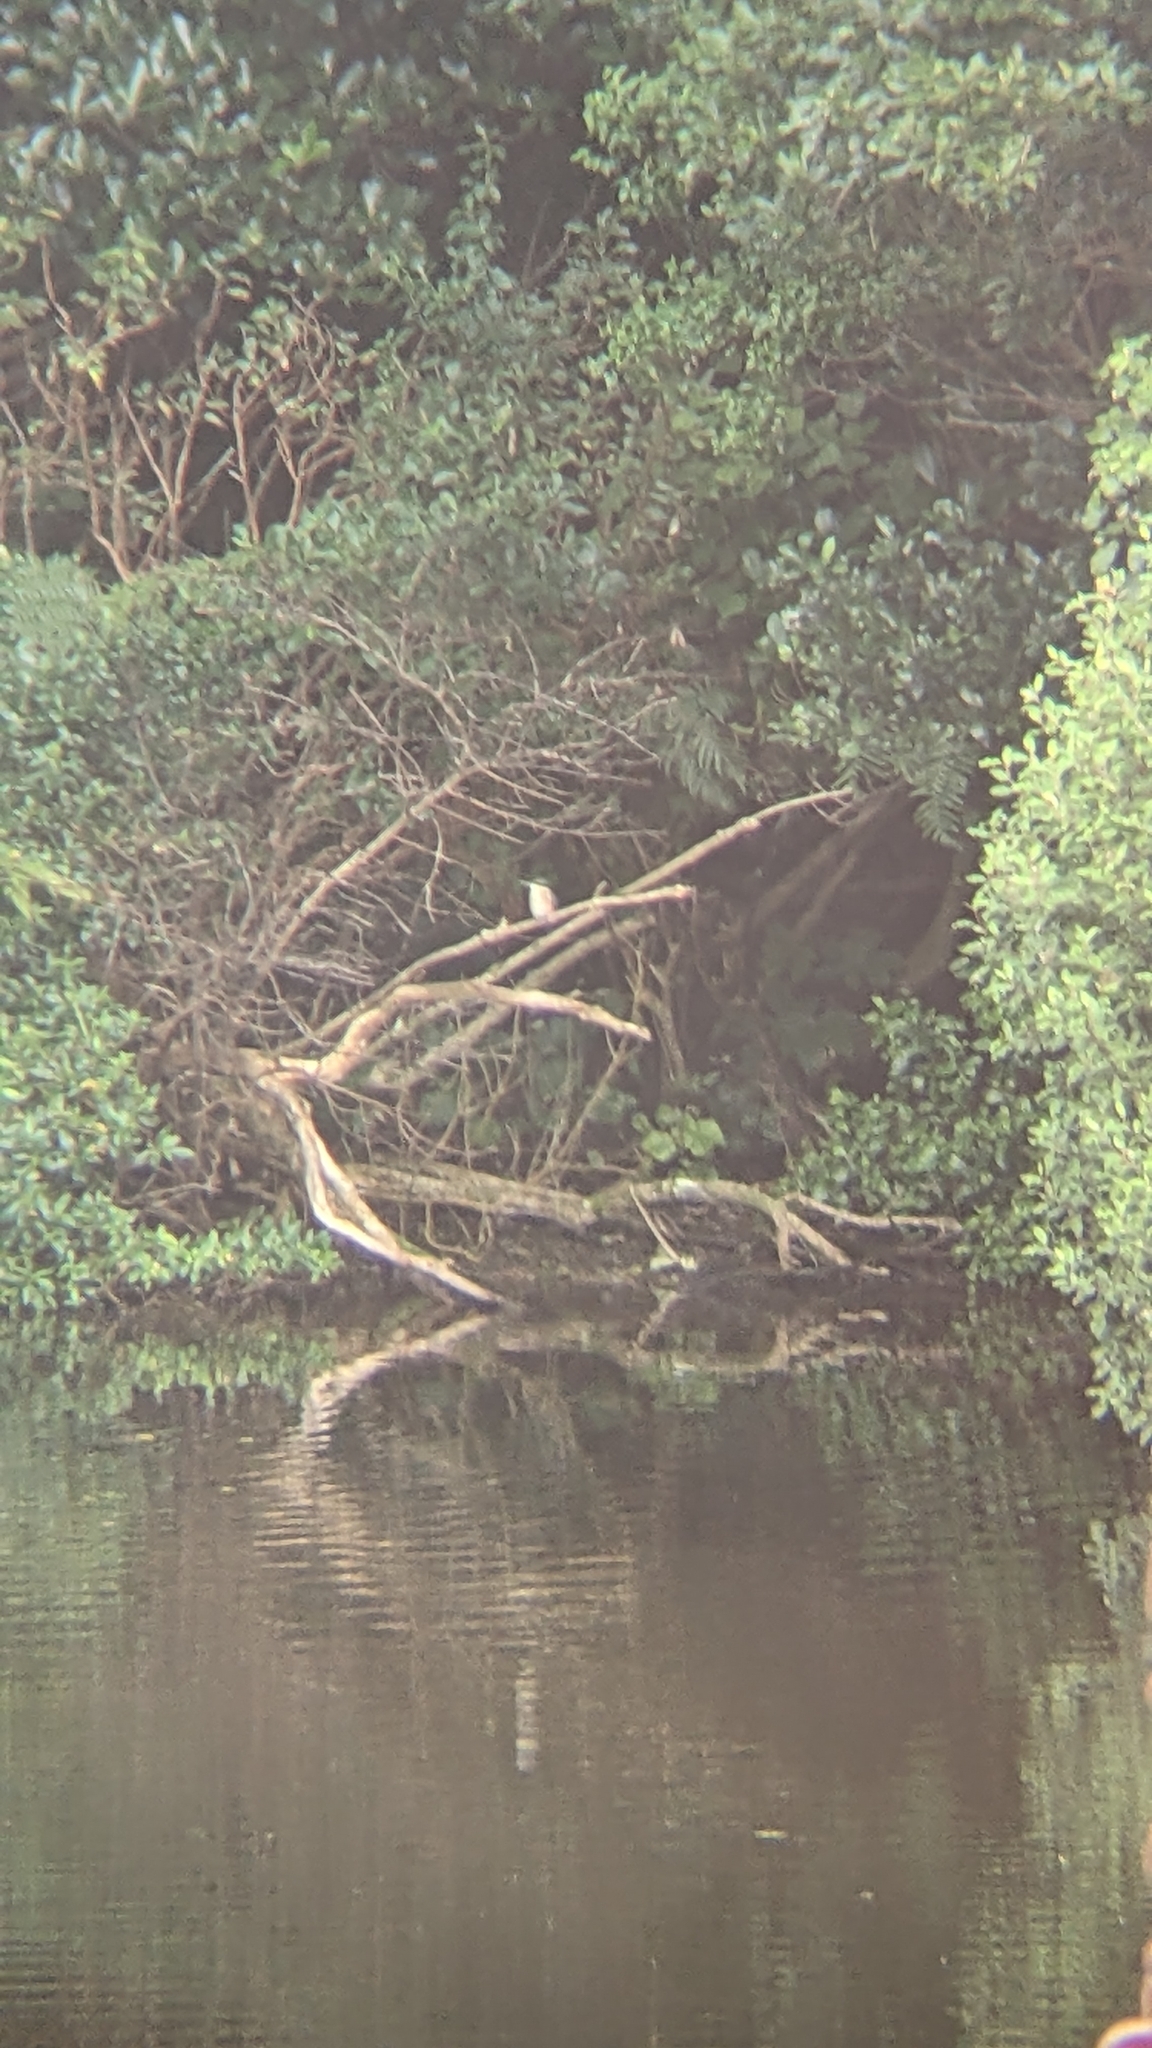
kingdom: Animalia
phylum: Chordata
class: Aves
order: Coraciiformes
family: Alcedinidae
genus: Todiramphus
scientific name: Todiramphus sanctus
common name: Sacred kingfisher
